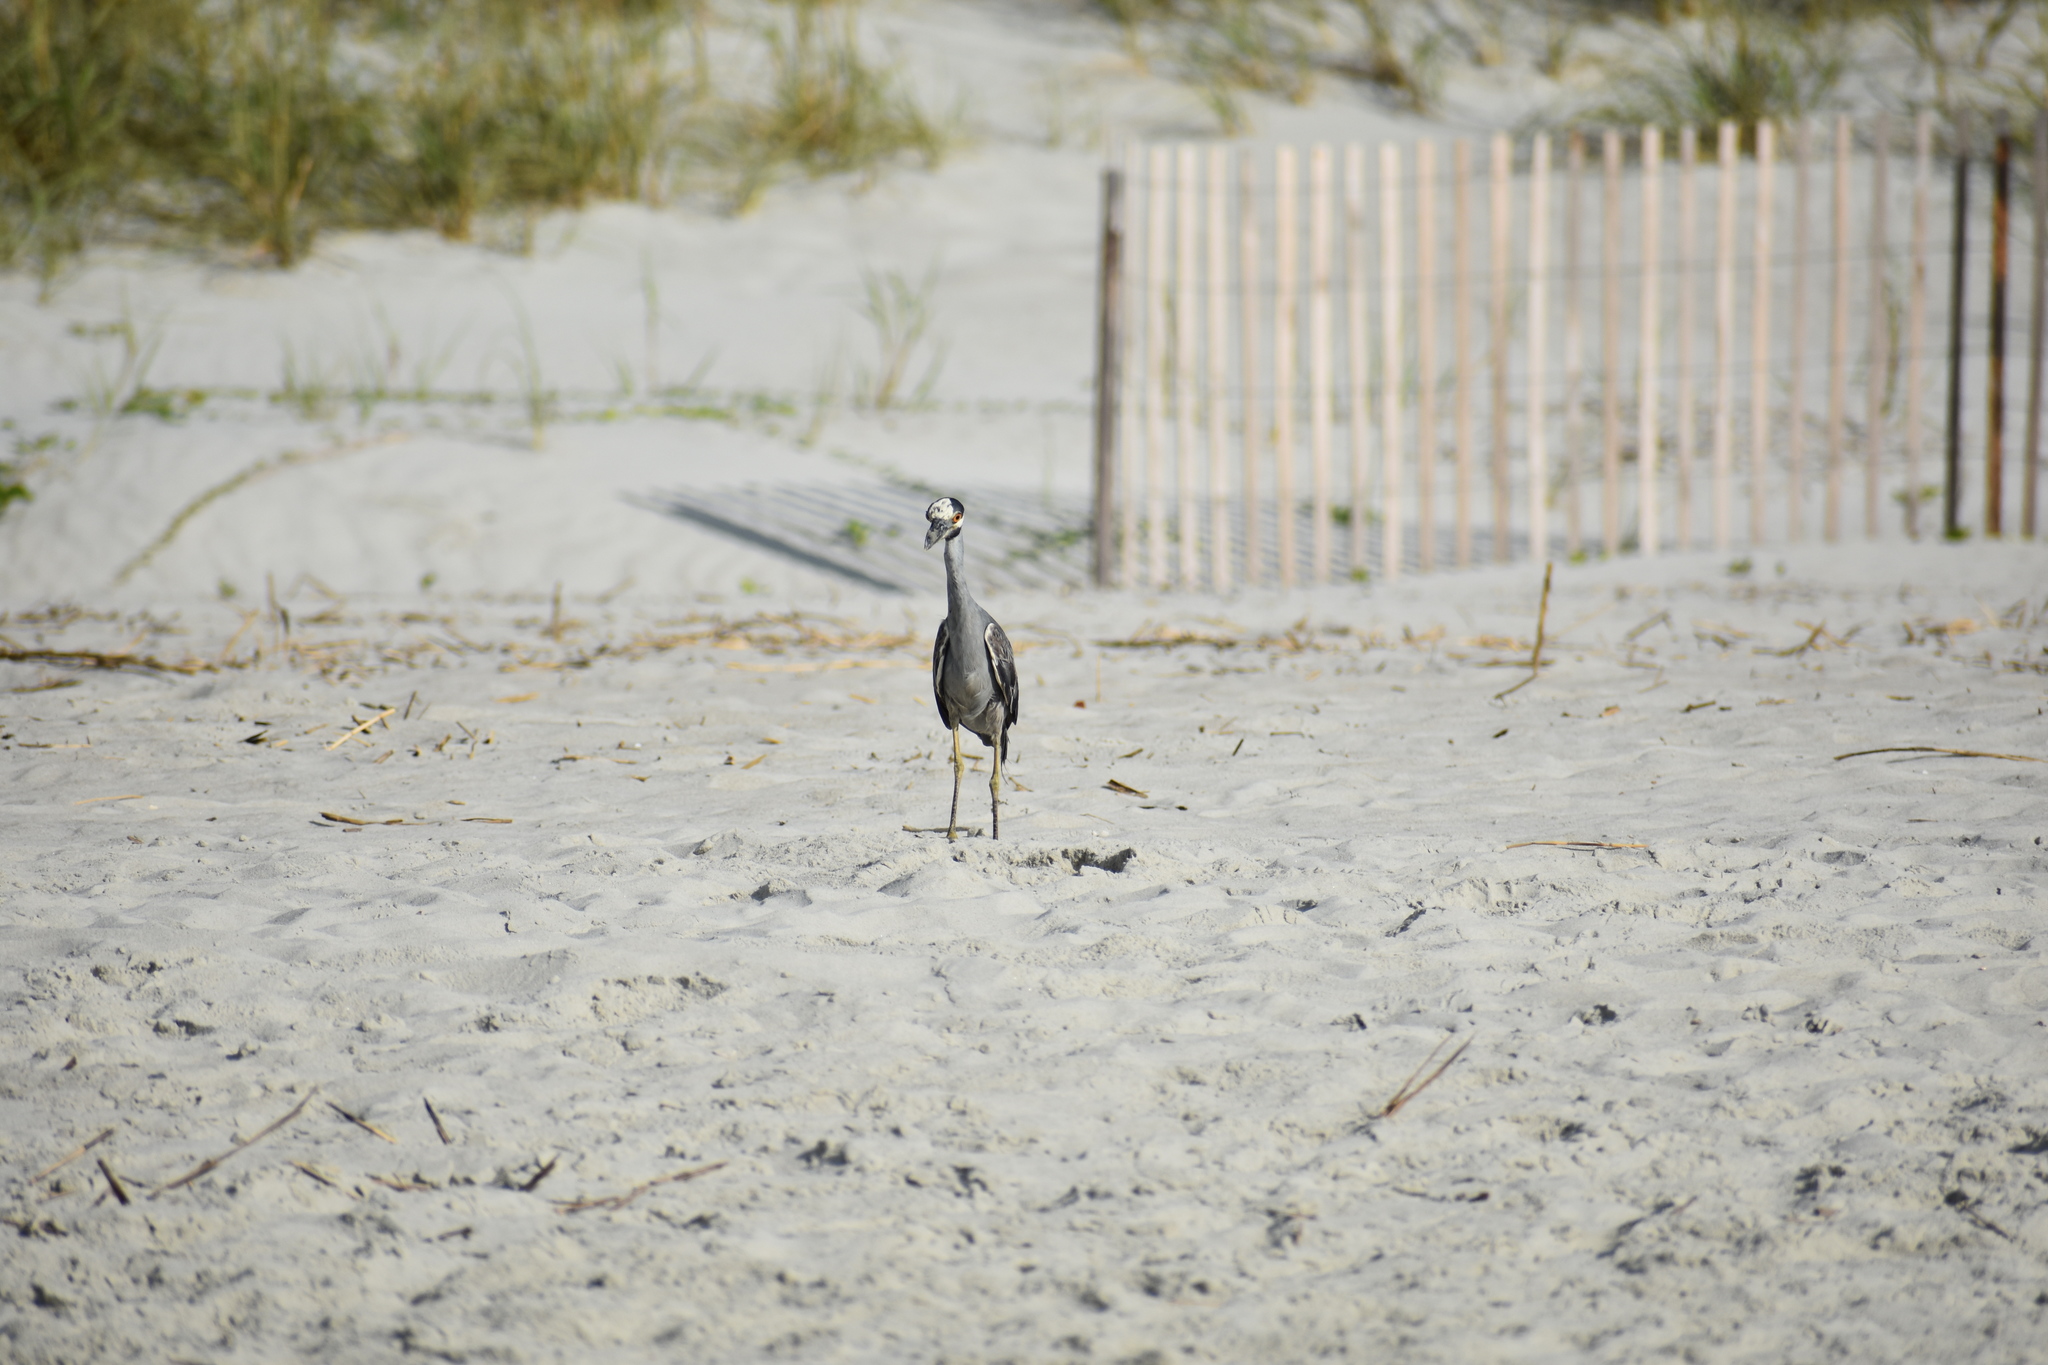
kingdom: Animalia
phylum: Chordata
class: Aves
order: Pelecaniformes
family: Ardeidae
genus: Nyctanassa
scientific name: Nyctanassa violacea
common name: Yellow-crowned night heron
